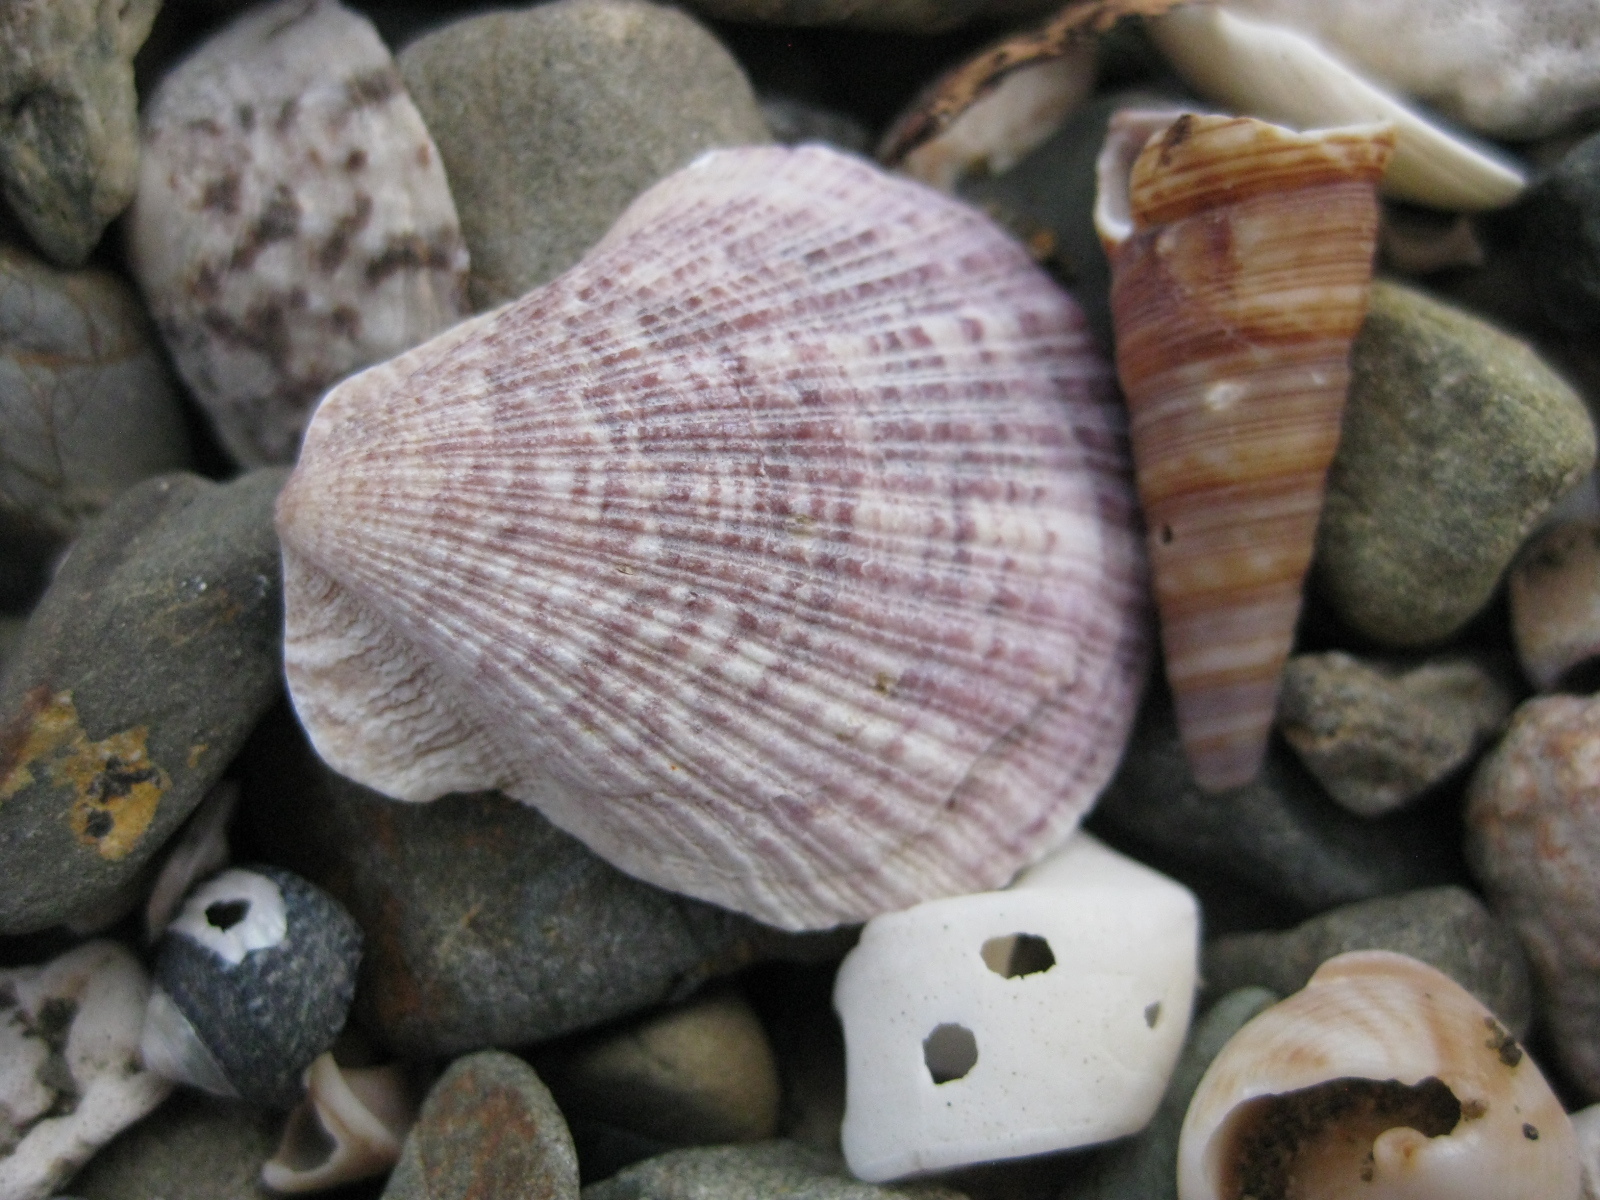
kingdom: Animalia
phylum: Mollusca
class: Bivalvia
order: Pectinida
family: Pectinidae
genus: Talochlamys
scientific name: Talochlamys zelandiae
